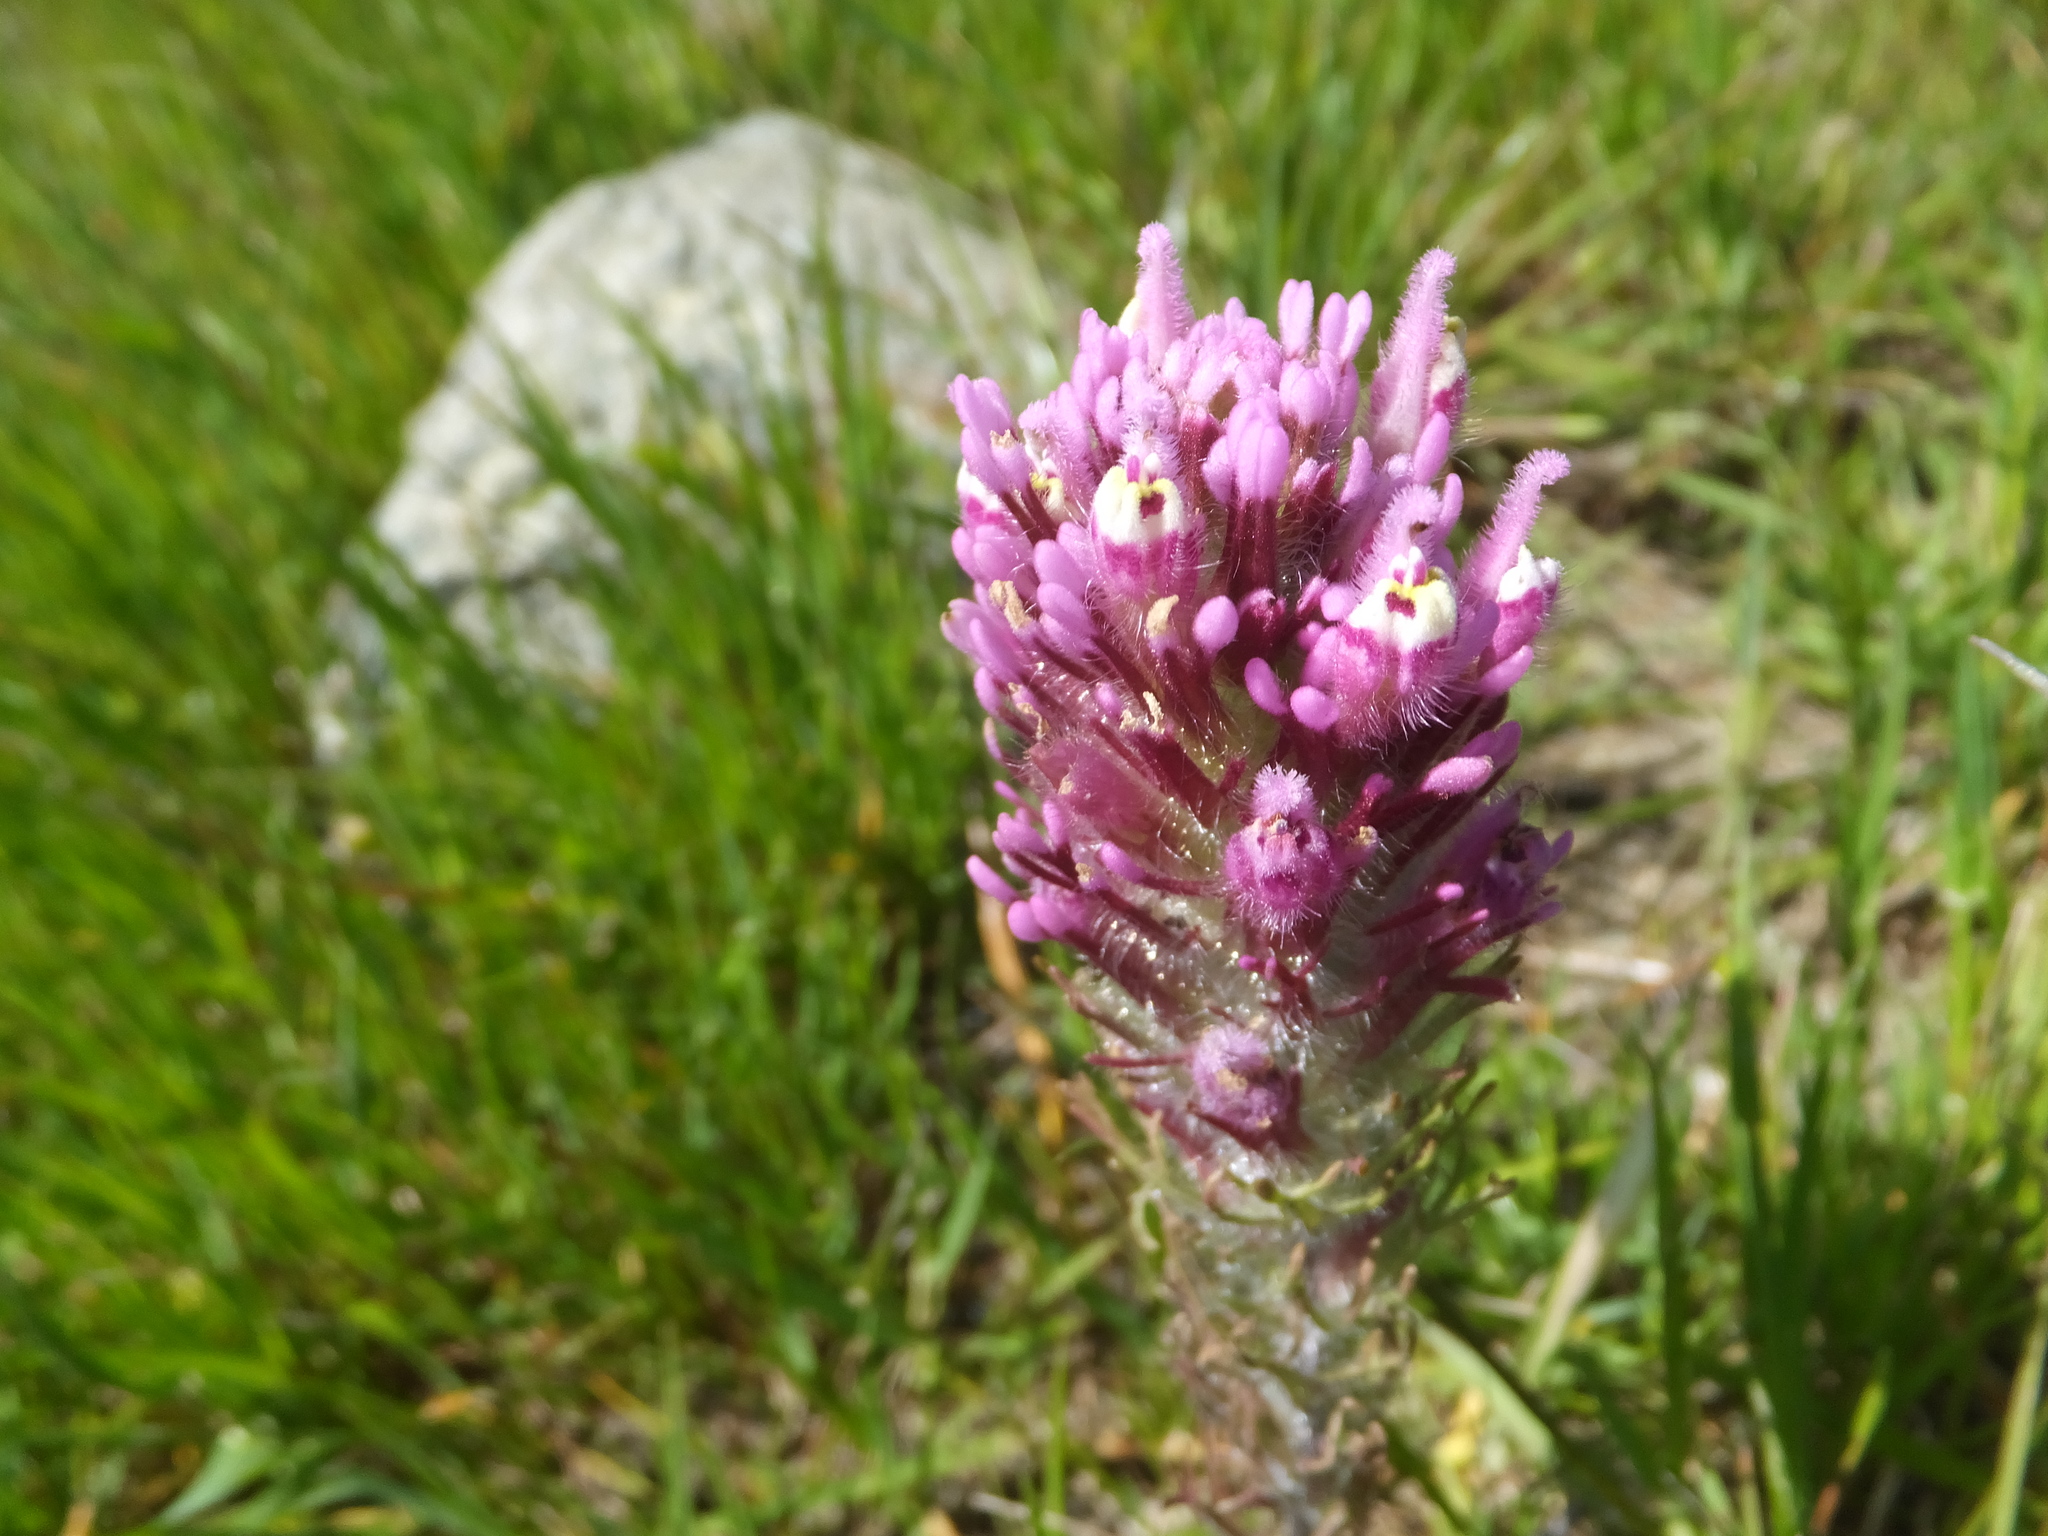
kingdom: Plantae
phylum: Tracheophyta
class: Magnoliopsida
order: Lamiales
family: Orobanchaceae
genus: Castilleja
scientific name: Castilleja exserta
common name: Purple owl-clover
